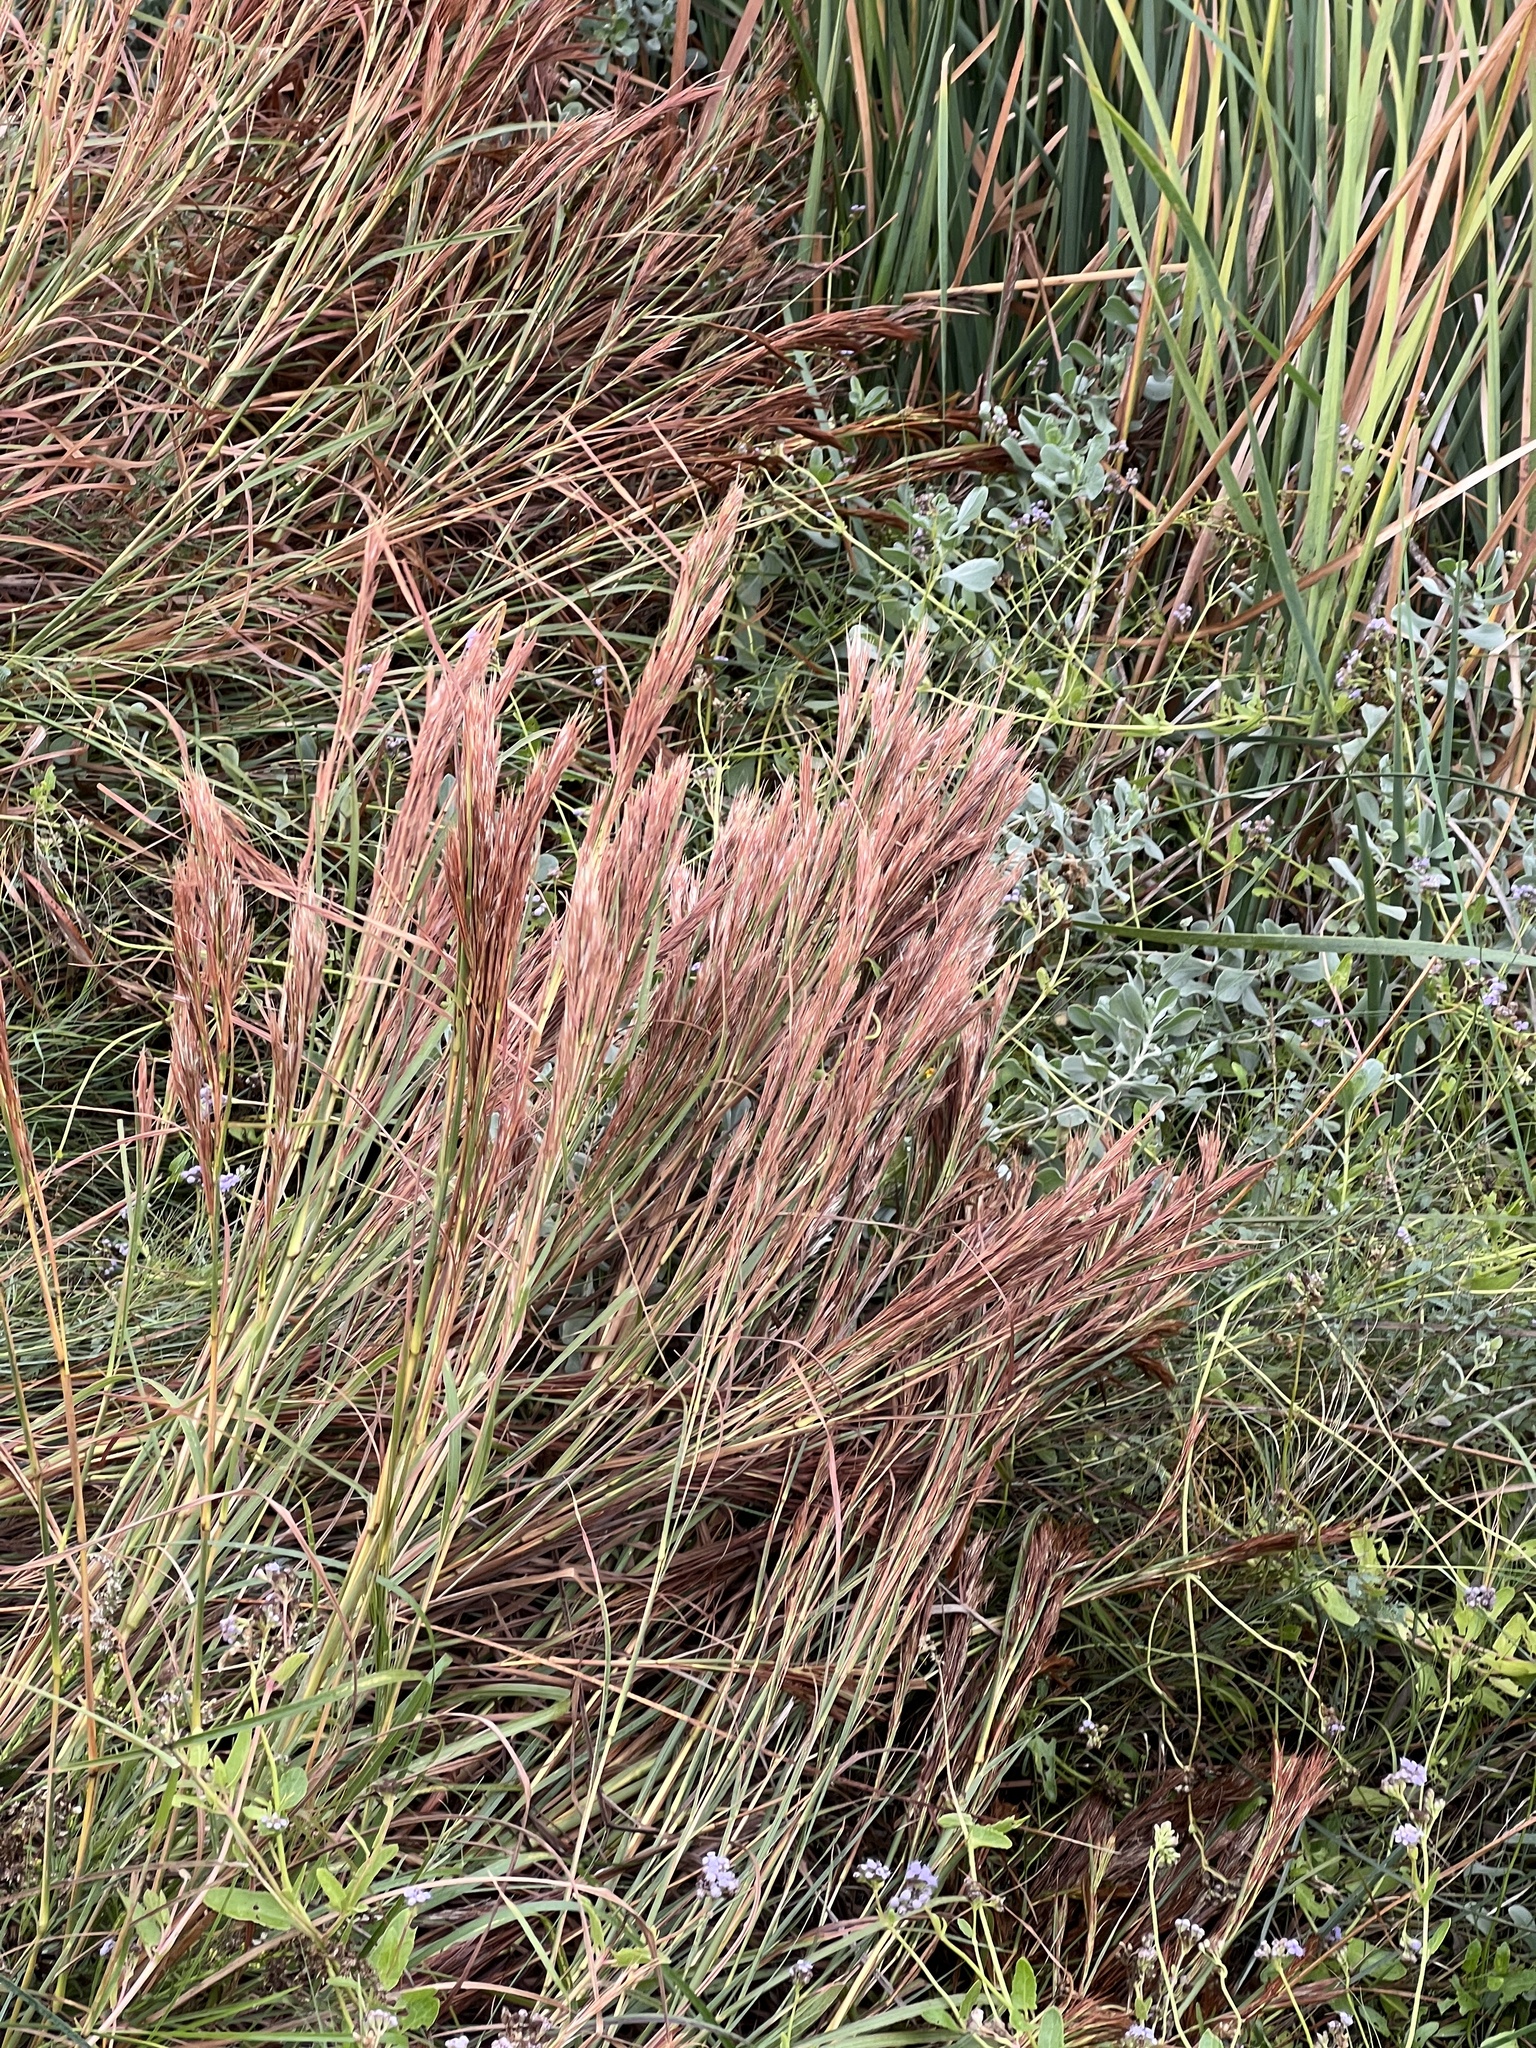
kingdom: Plantae
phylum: Tracheophyta
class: Liliopsida
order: Poales
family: Poaceae
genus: Andropogon
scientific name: Andropogon tenuispatheus
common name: Bushy bluestem
